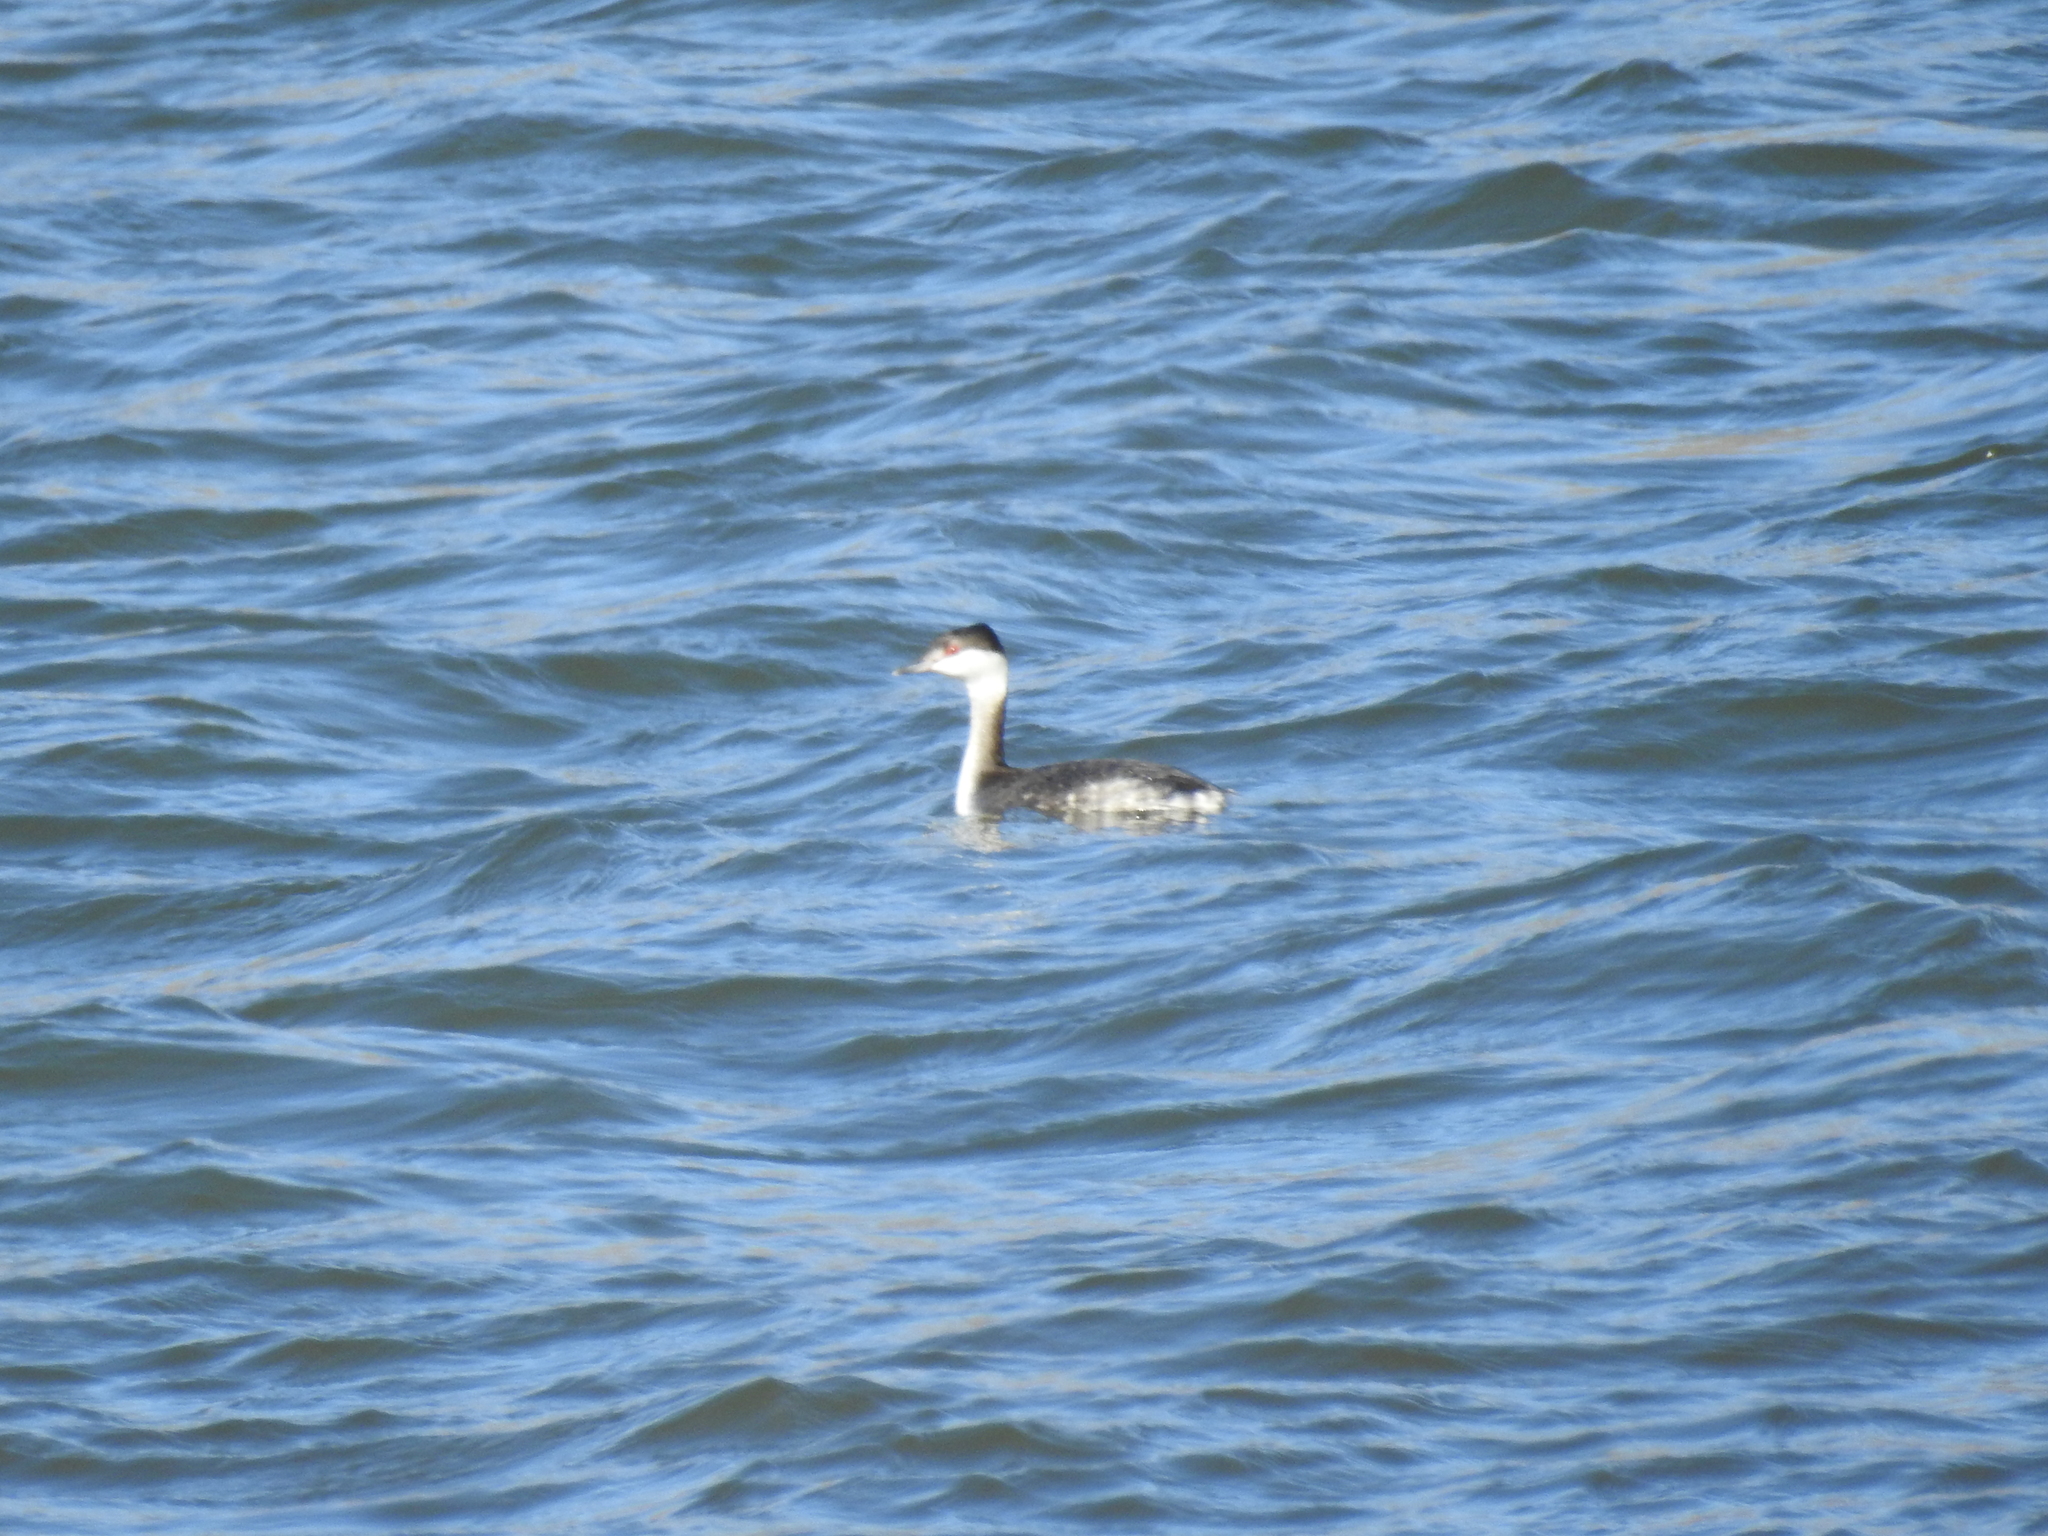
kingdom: Animalia
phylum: Chordata
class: Aves
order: Podicipediformes
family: Podicipedidae
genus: Podiceps
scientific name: Podiceps auritus
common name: Horned grebe
